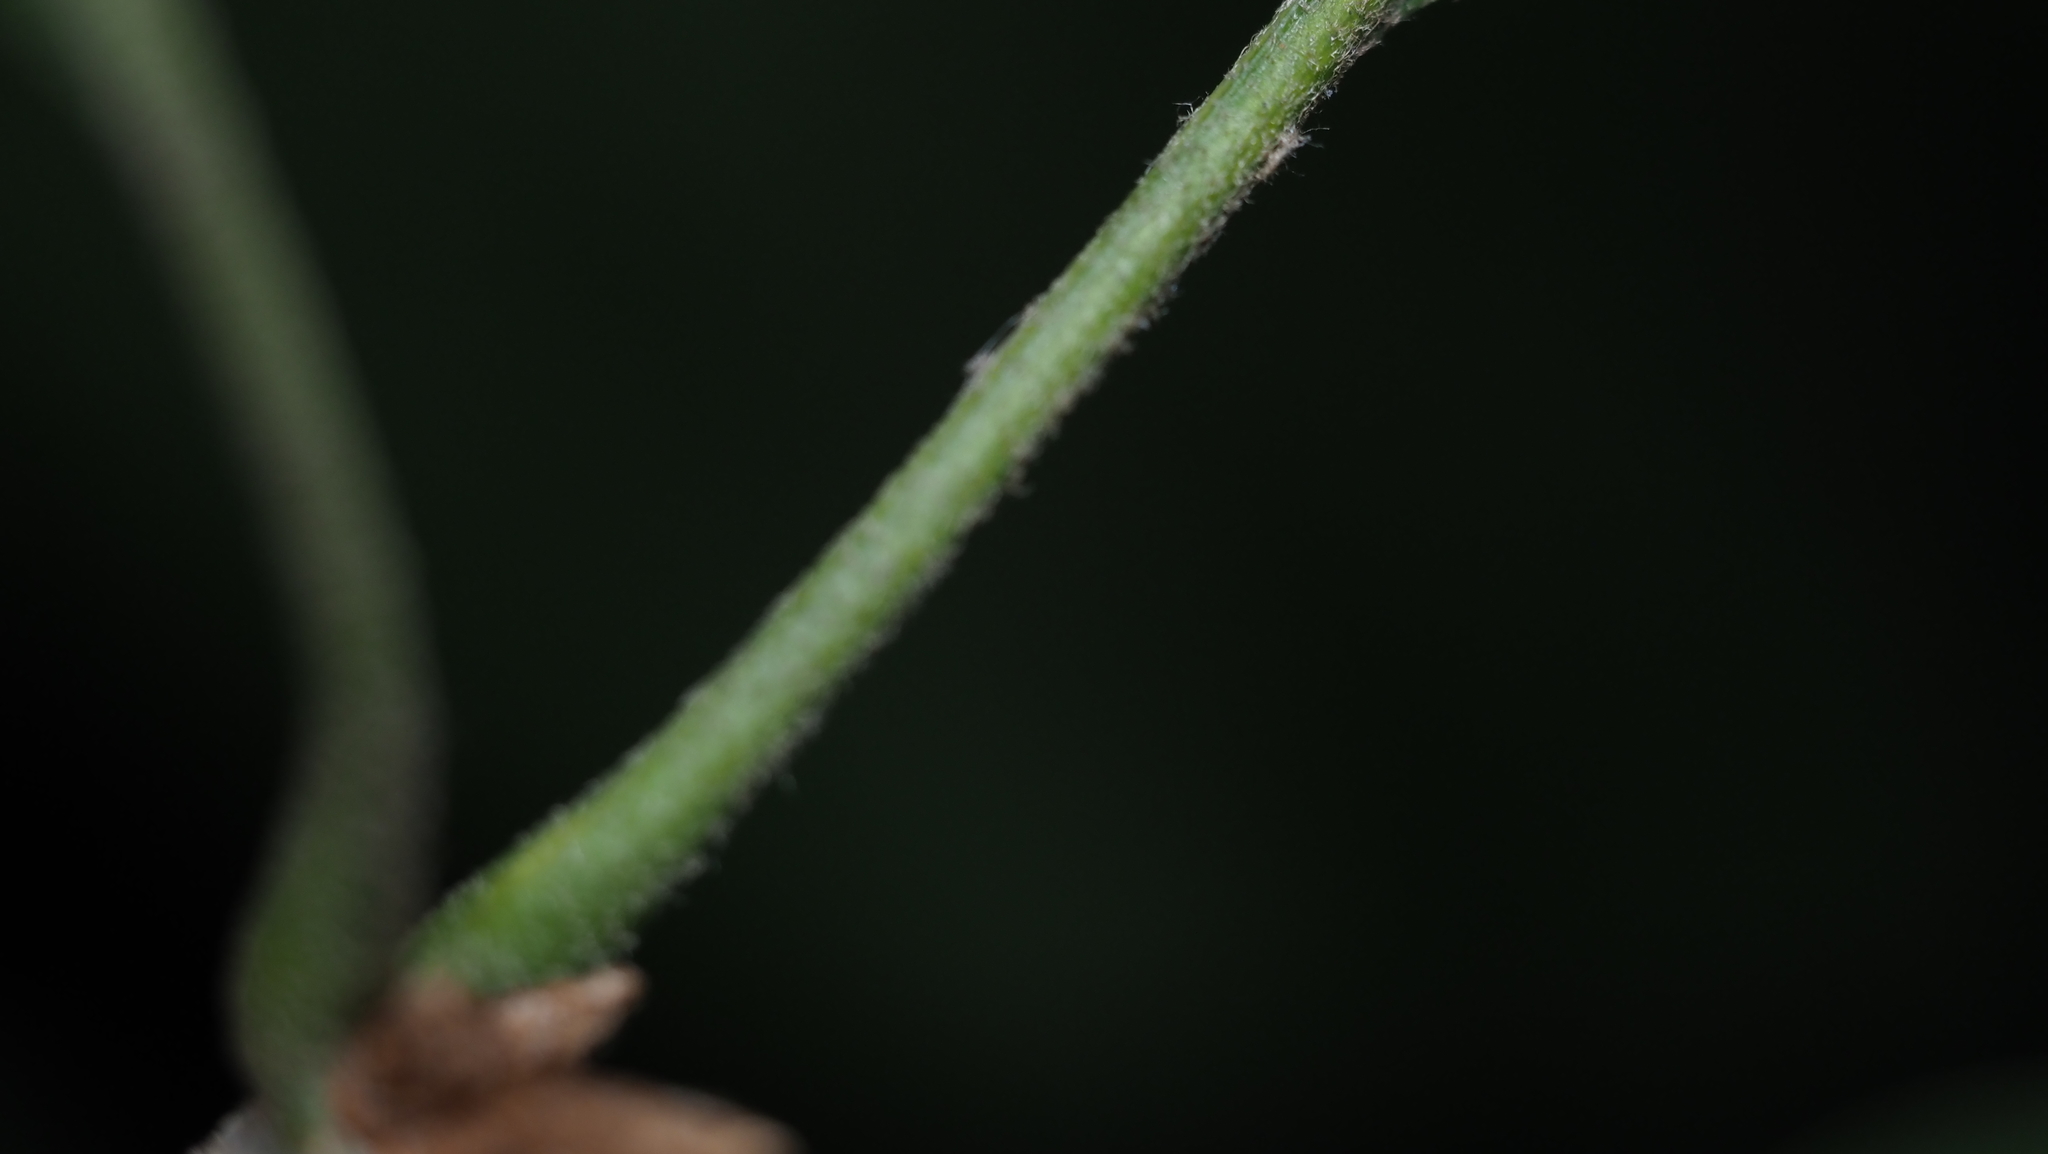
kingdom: Plantae
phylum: Tracheophyta
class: Magnoliopsida
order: Fagales
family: Fagaceae
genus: Quercus
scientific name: Quercus velutina
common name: Black oak
